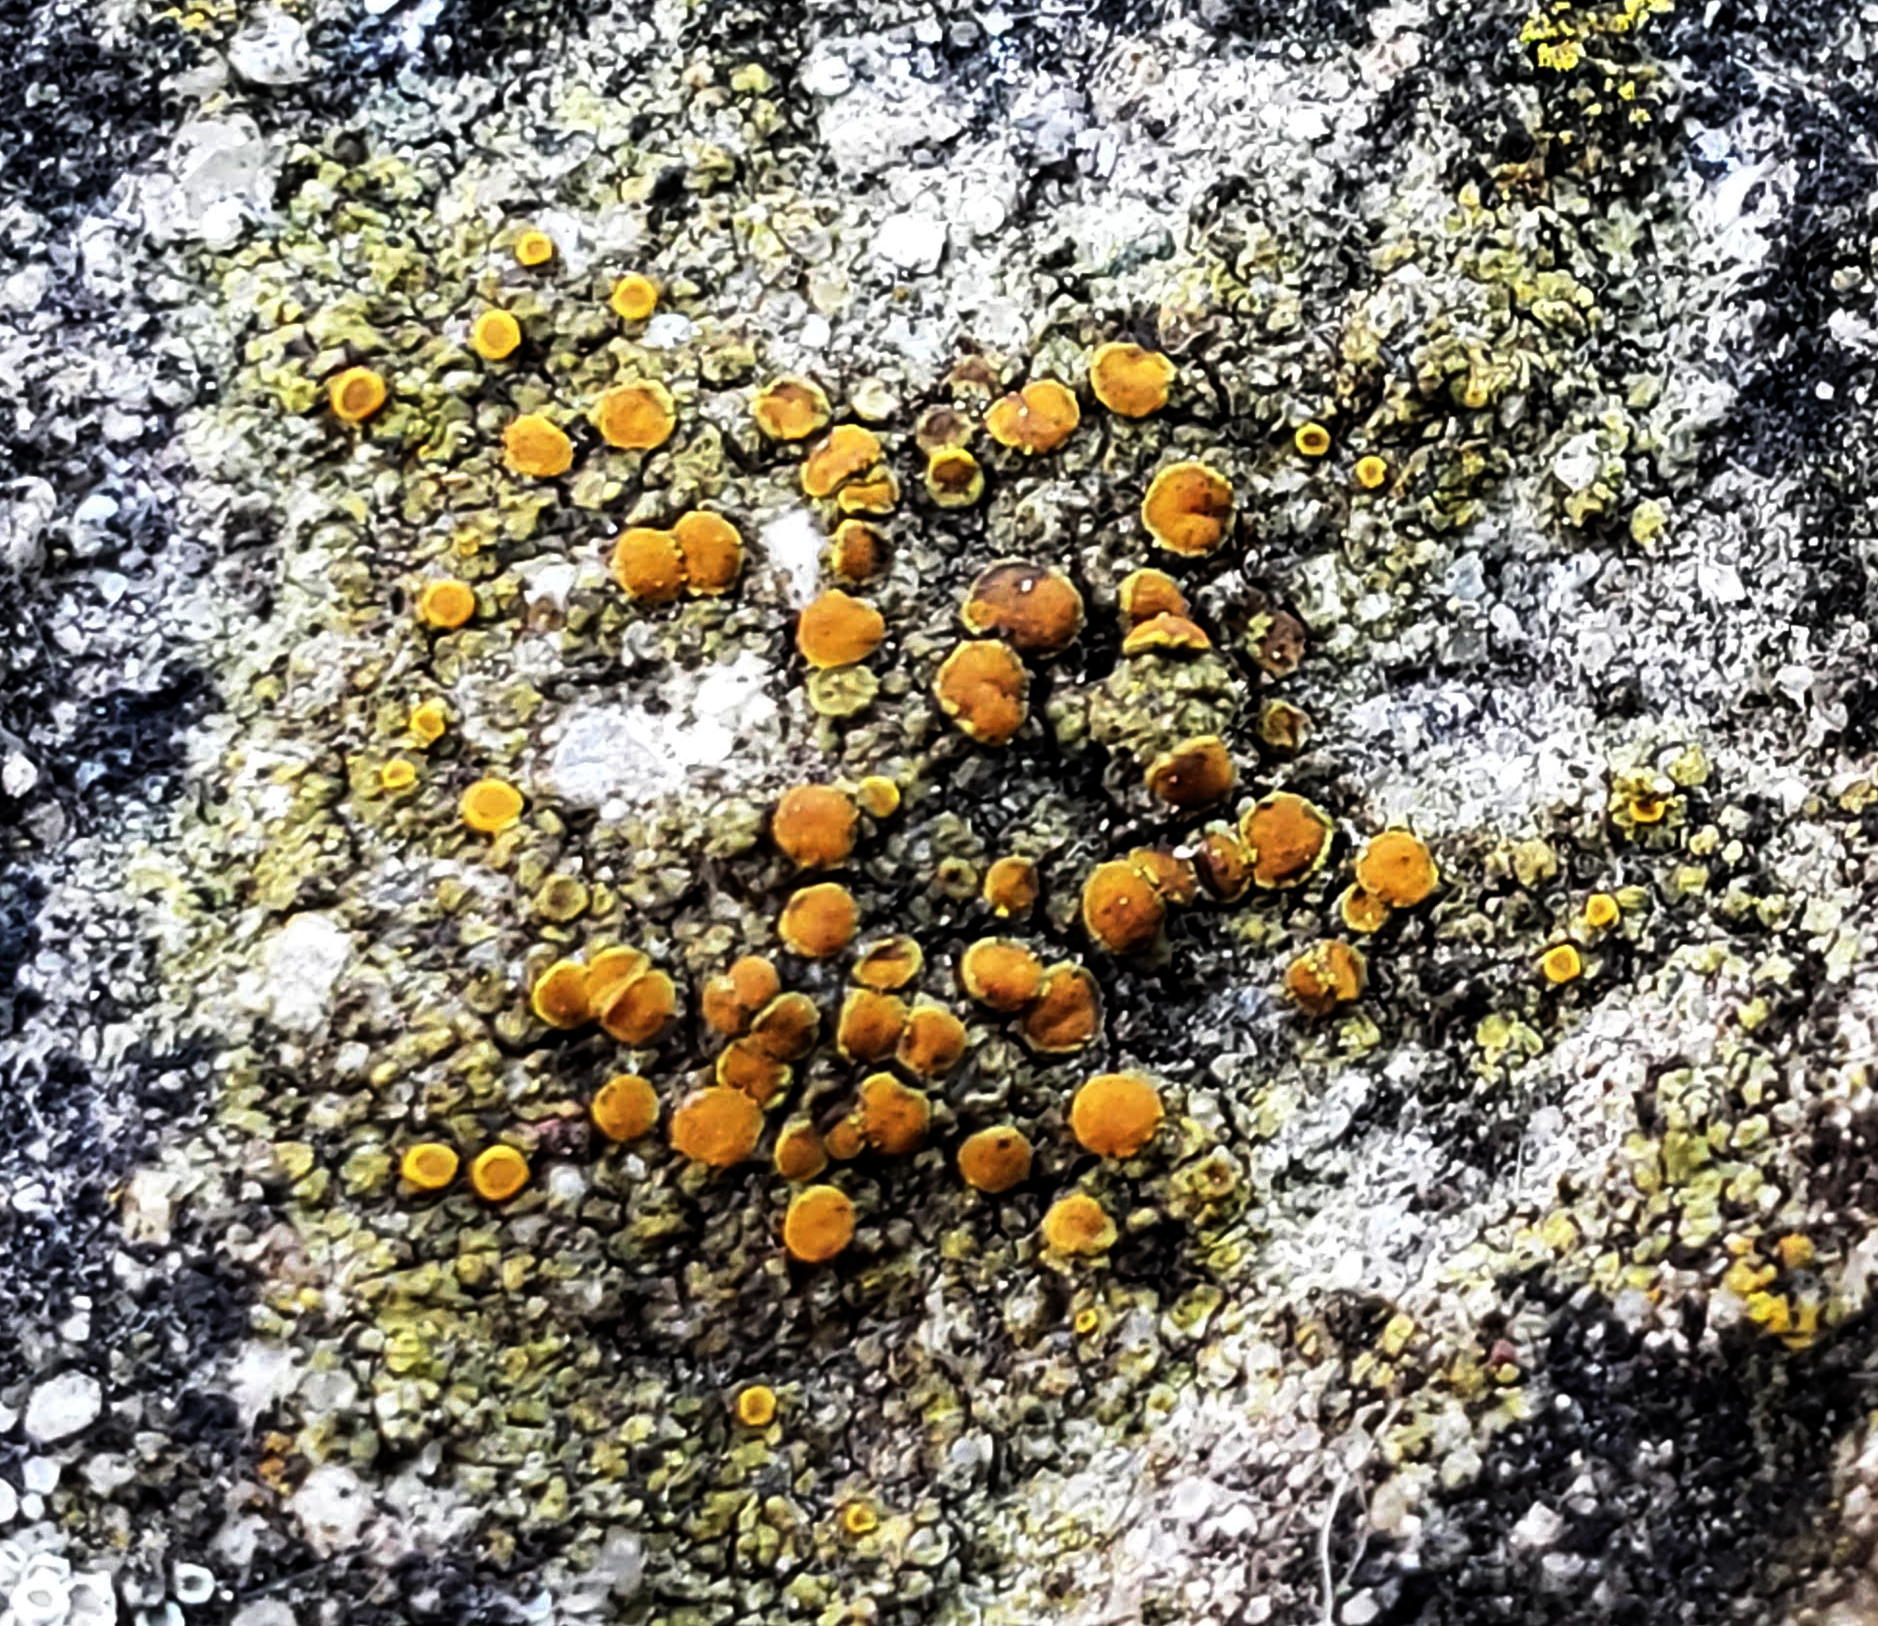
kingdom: Fungi
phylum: Ascomycota
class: Lecanoromycetes
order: Teloschistales
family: Teloschistaceae
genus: Gyalolechia
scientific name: Gyalolechia flavovirescens
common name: Sulphur firedot
